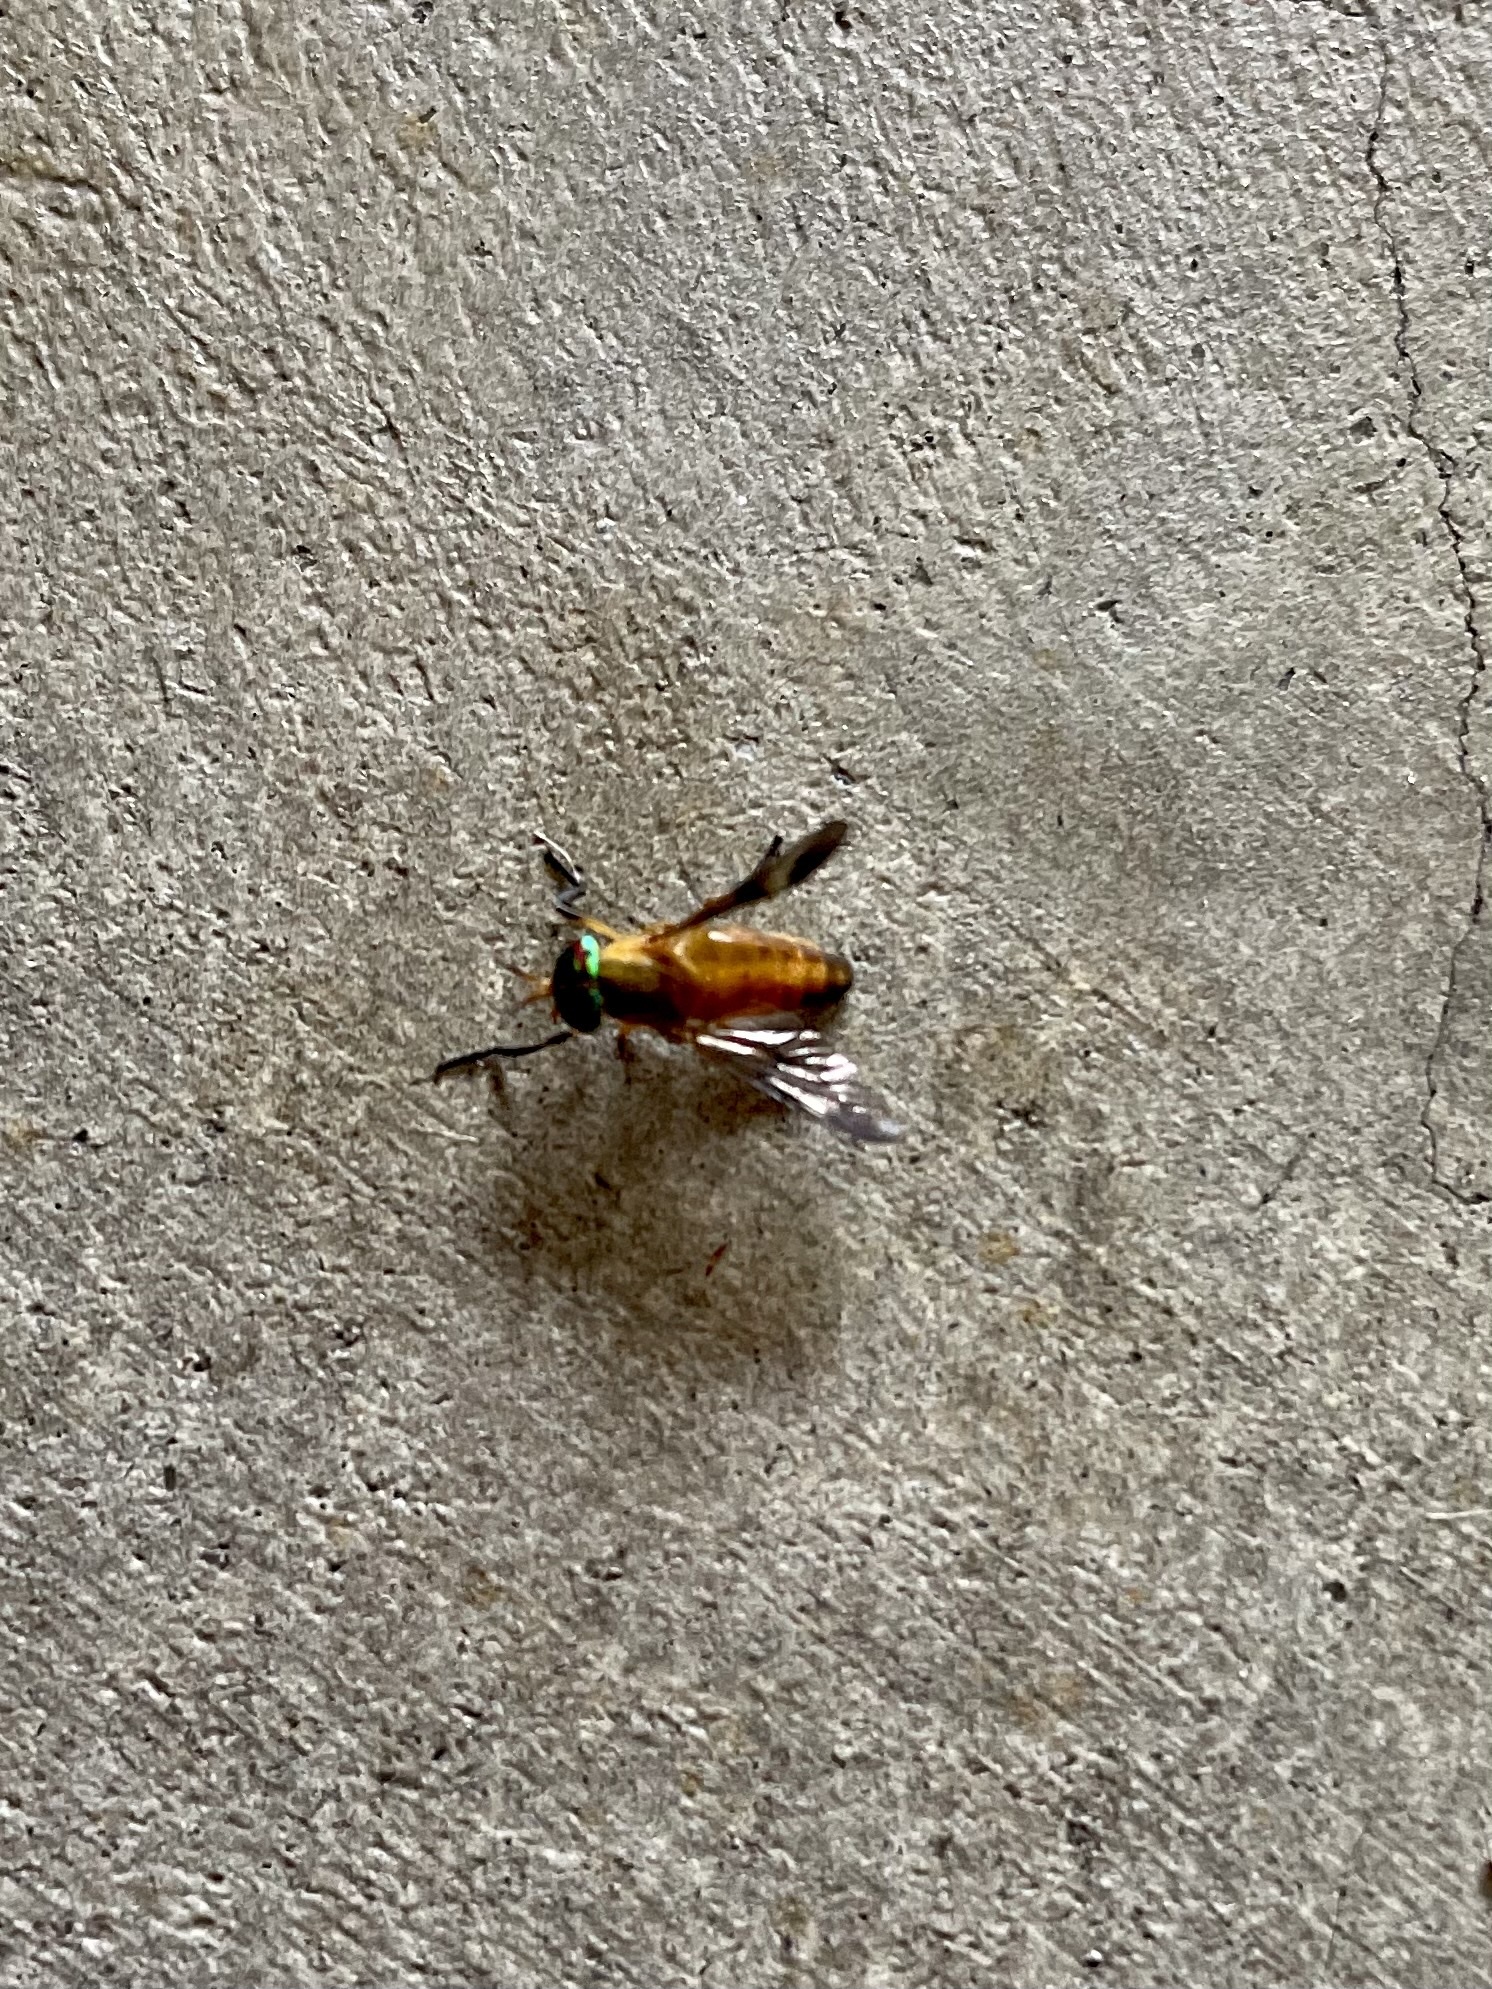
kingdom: Animalia
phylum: Arthropoda
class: Insecta
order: Diptera
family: Tabanidae
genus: Diachlorus
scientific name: Diachlorus ferrugatus
